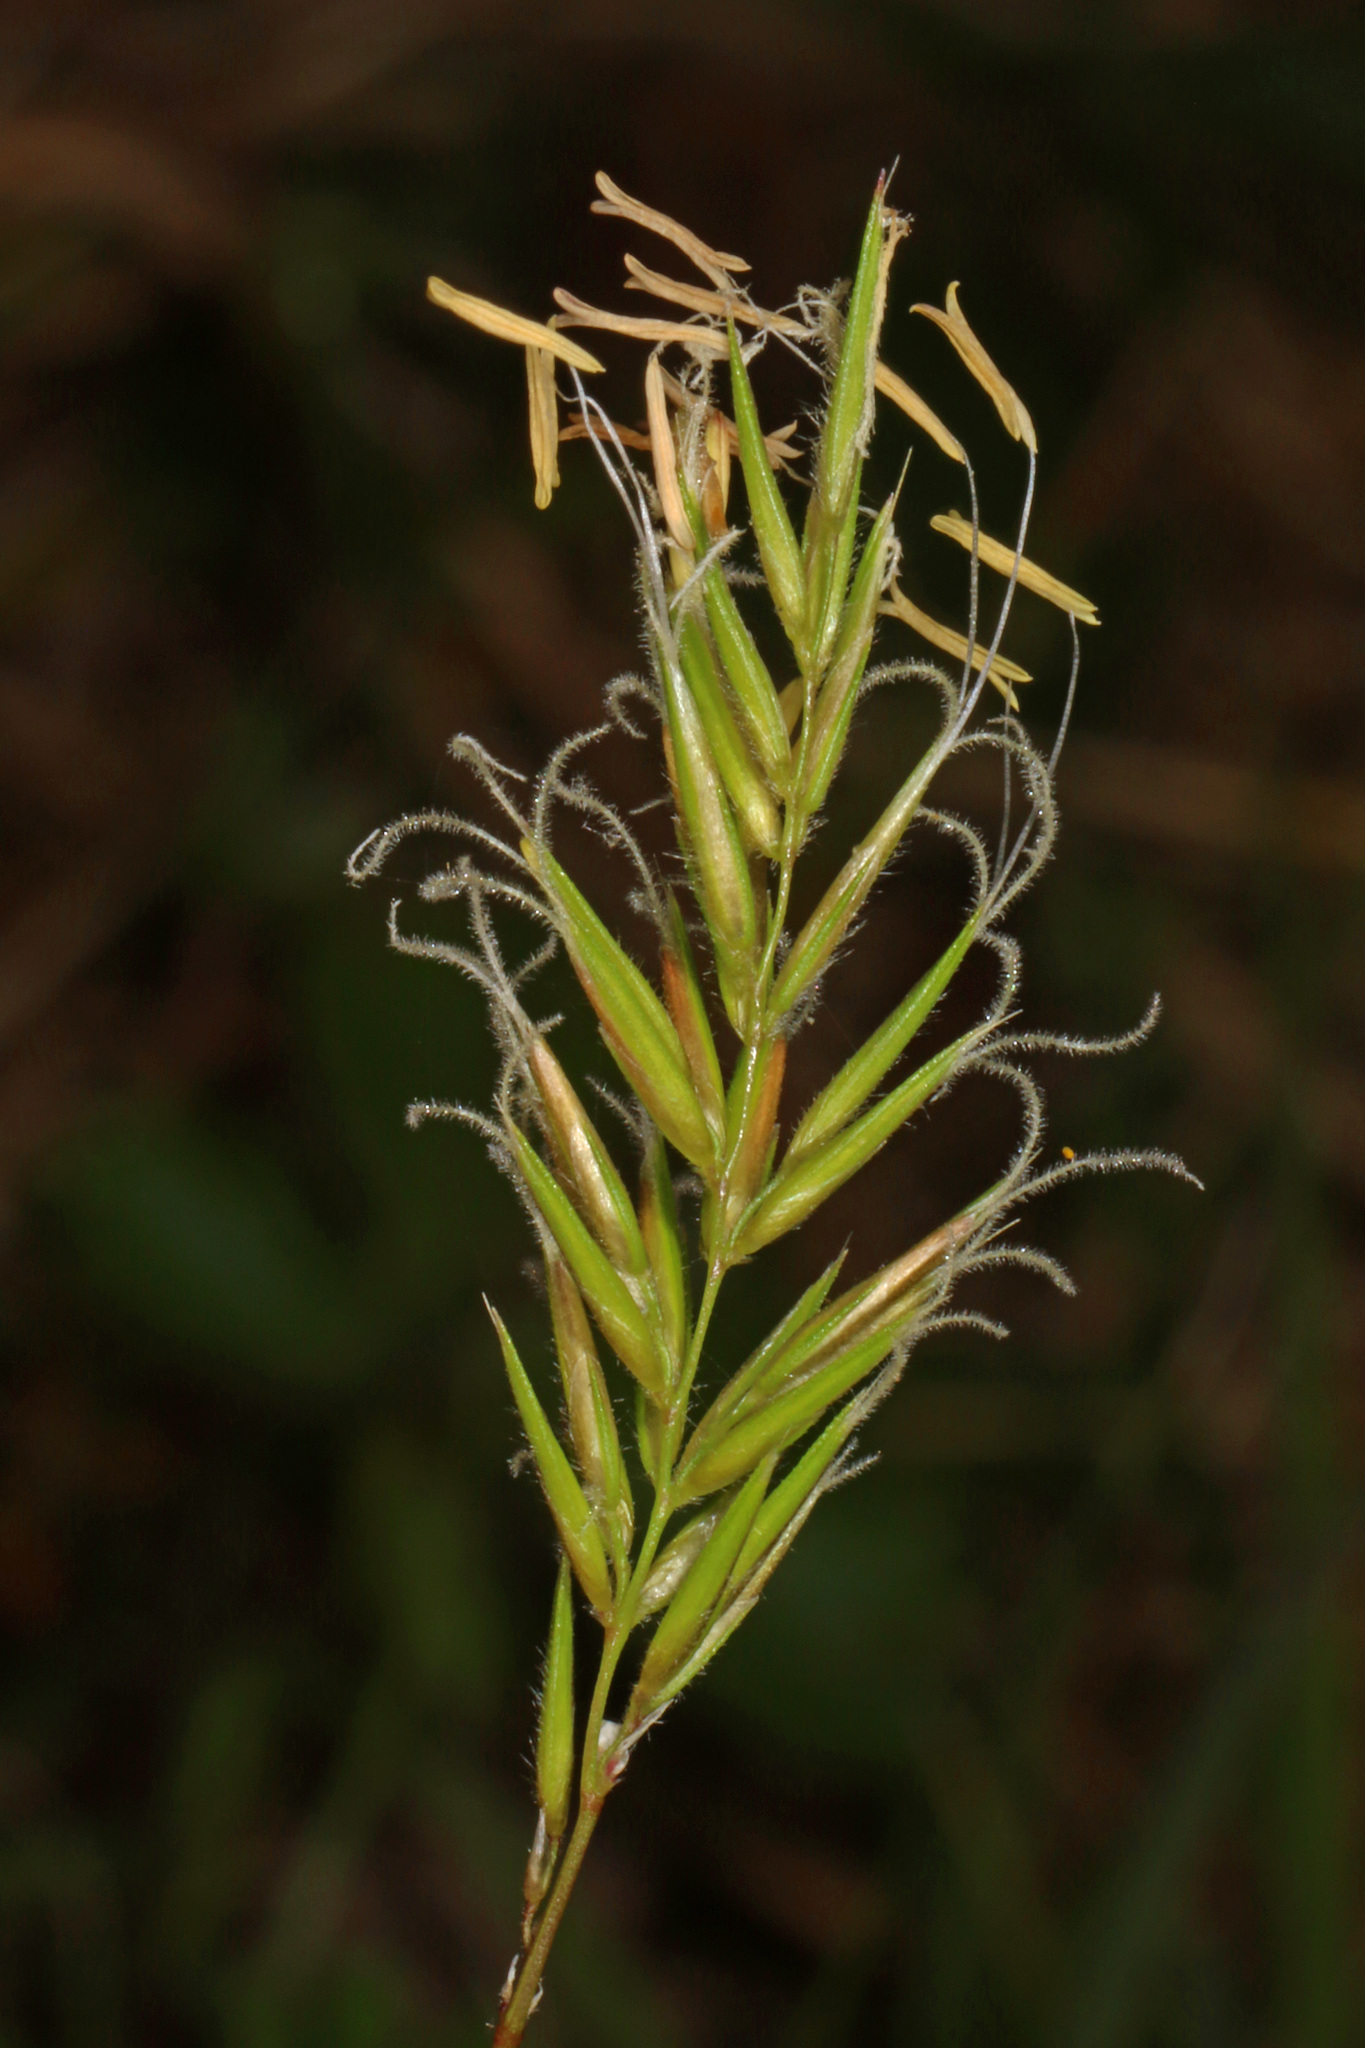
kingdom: Plantae
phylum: Tracheophyta
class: Liliopsida
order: Poales
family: Poaceae
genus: Anthoxanthum
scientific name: Anthoxanthum odoratum
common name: Sweet vernalgrass
